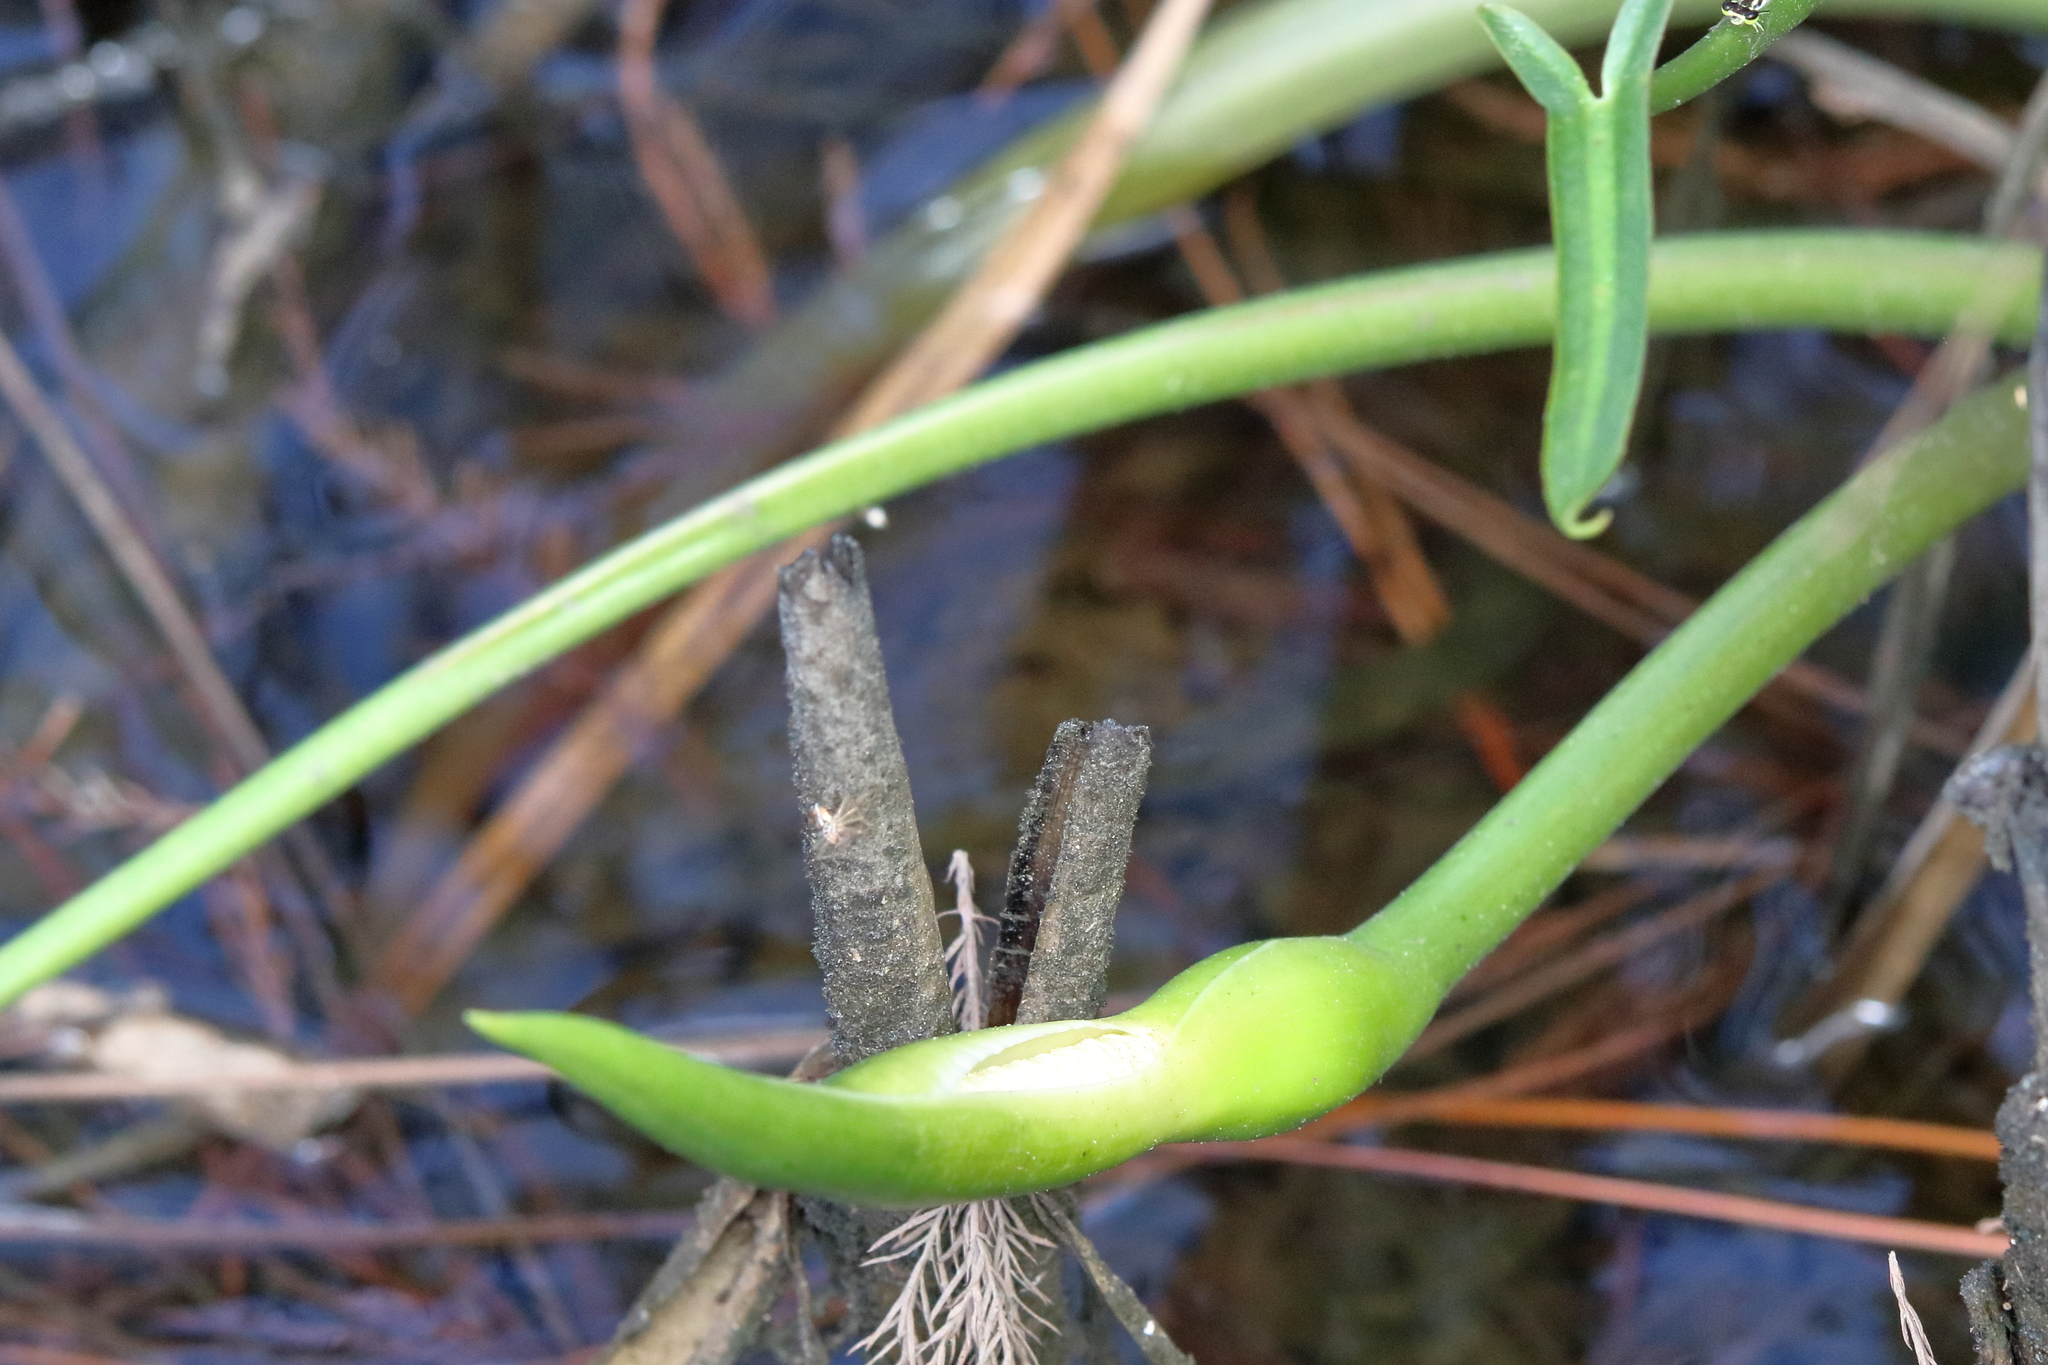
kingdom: Plantae
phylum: Tracheophyta
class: Liliopsida
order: Alismatales
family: Araceae
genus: Peltandra
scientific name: Peltandra virginica
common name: Arrow arum
